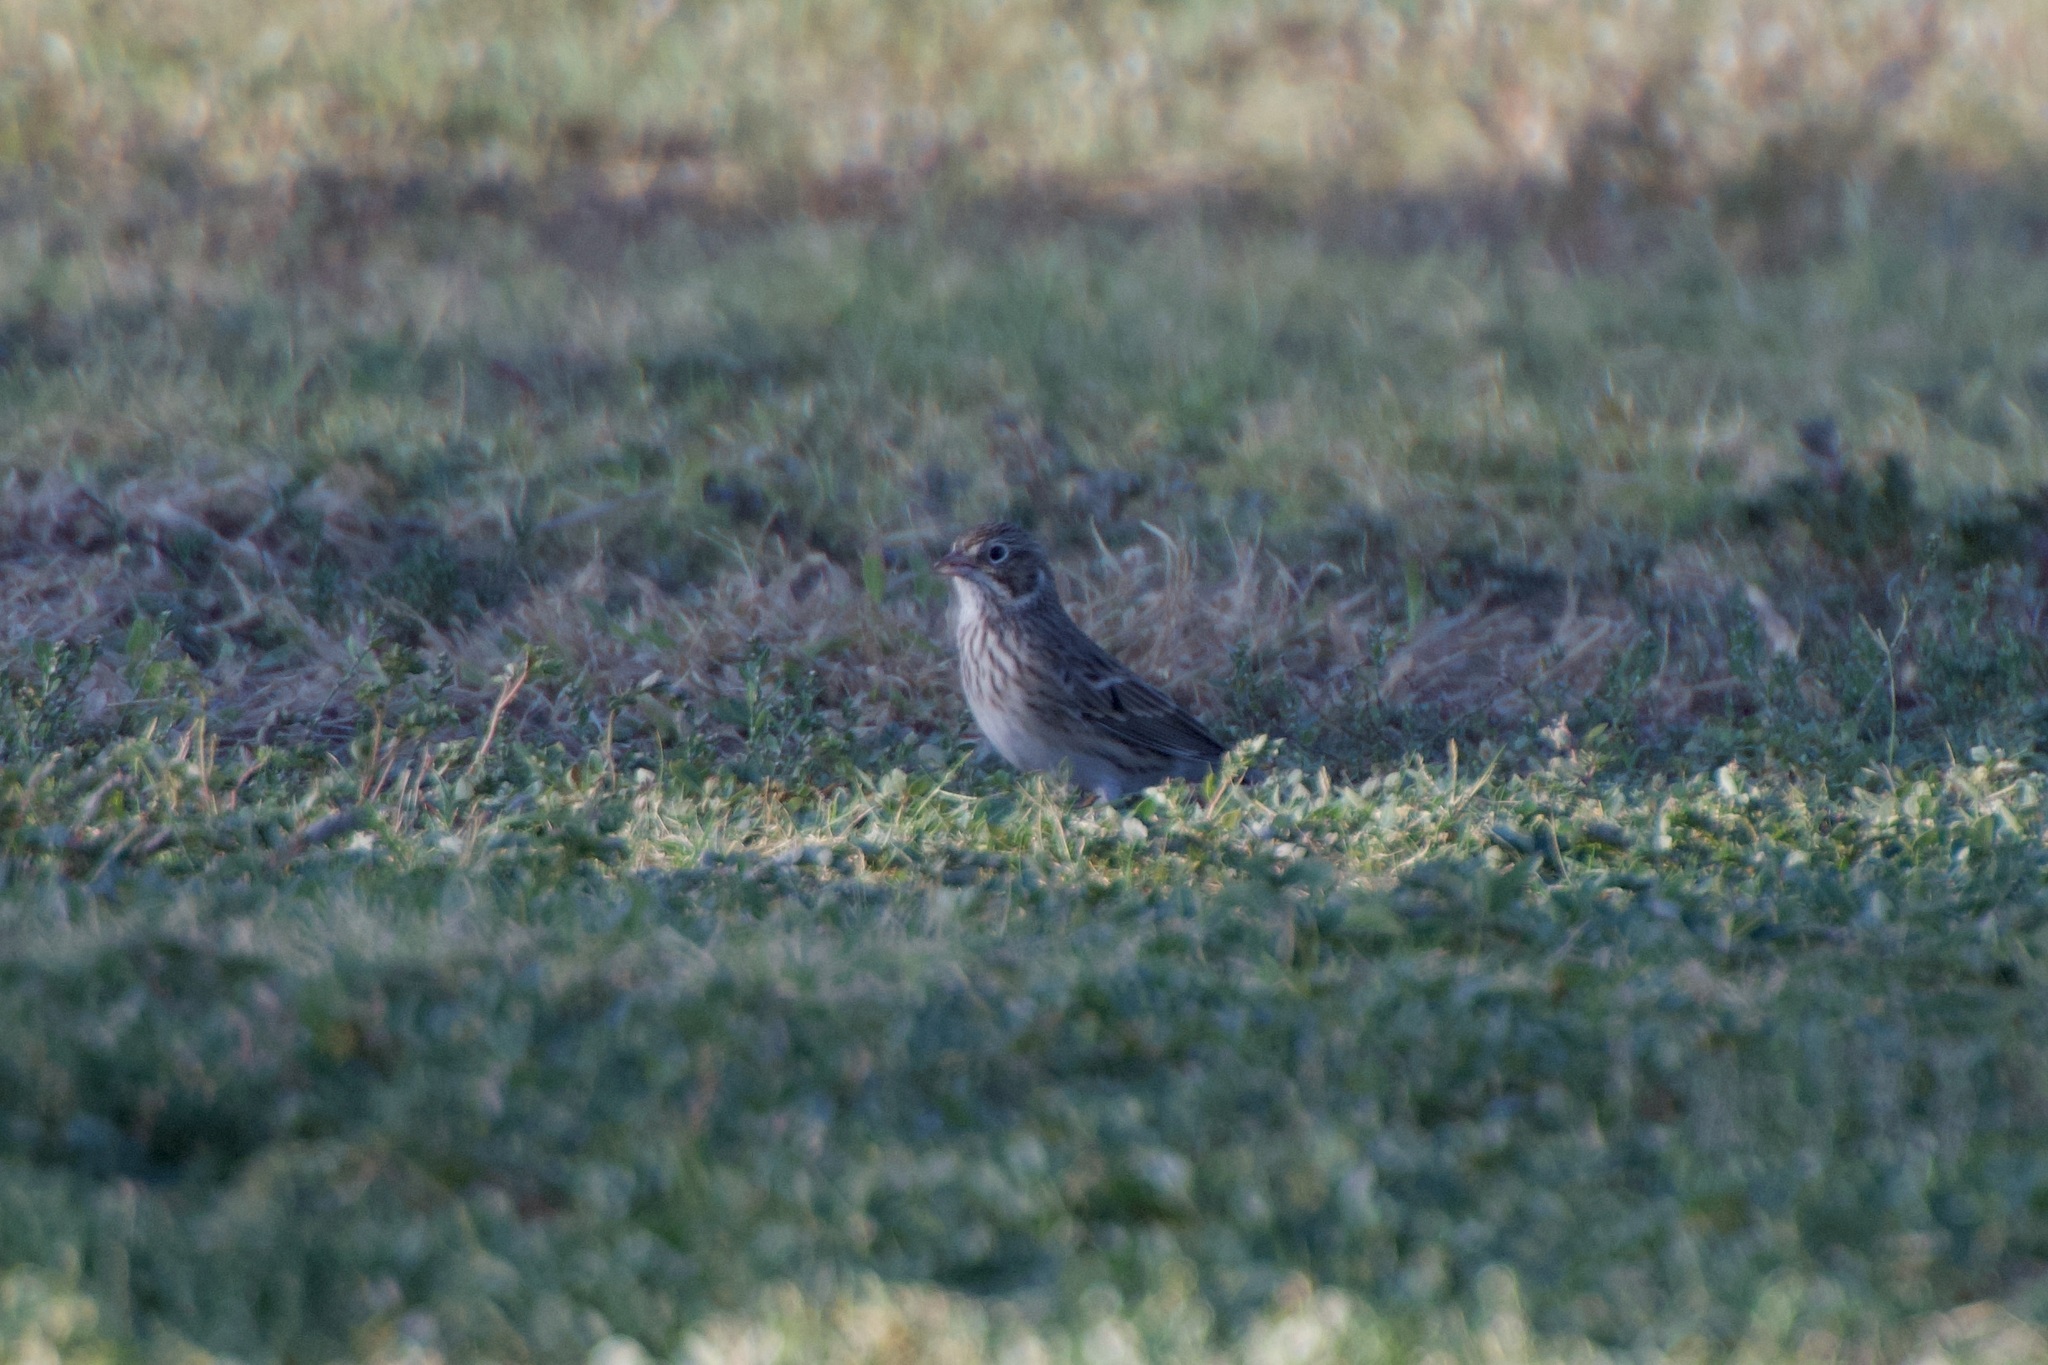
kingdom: Animalia
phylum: Chordata
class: Aves
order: Passeriformes
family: Passerellidae
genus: Pooecetes
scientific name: Pooecetes gramineus
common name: Vesper sparrow
